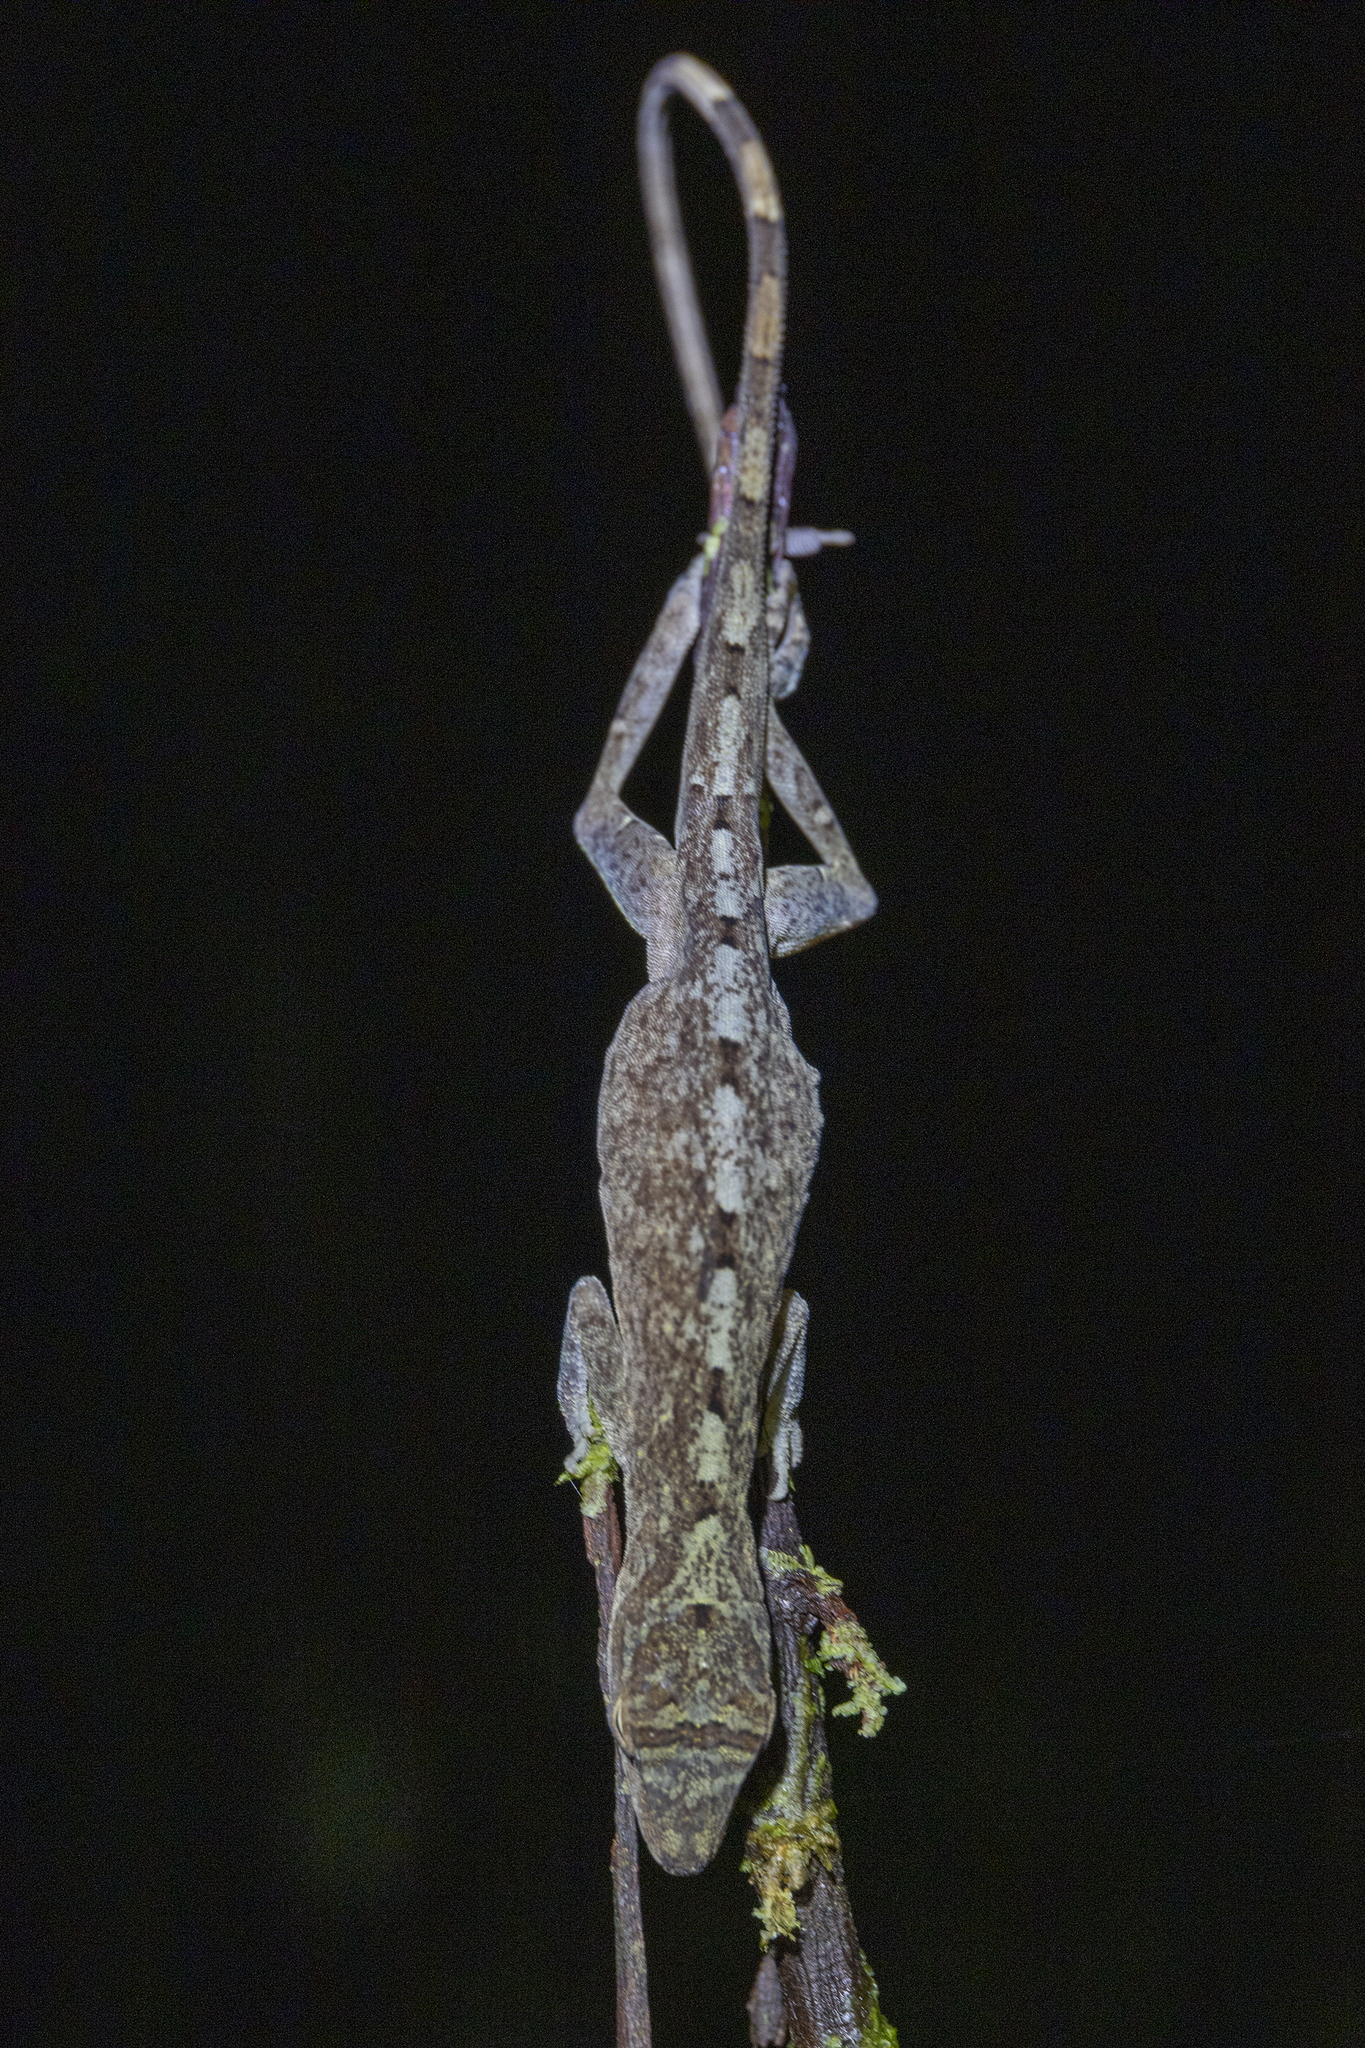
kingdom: Animalia
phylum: Chordata
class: Squamata
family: Dactyloidae
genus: Anolis
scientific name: Anolis fuscoauratus
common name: Brown-eared anole
